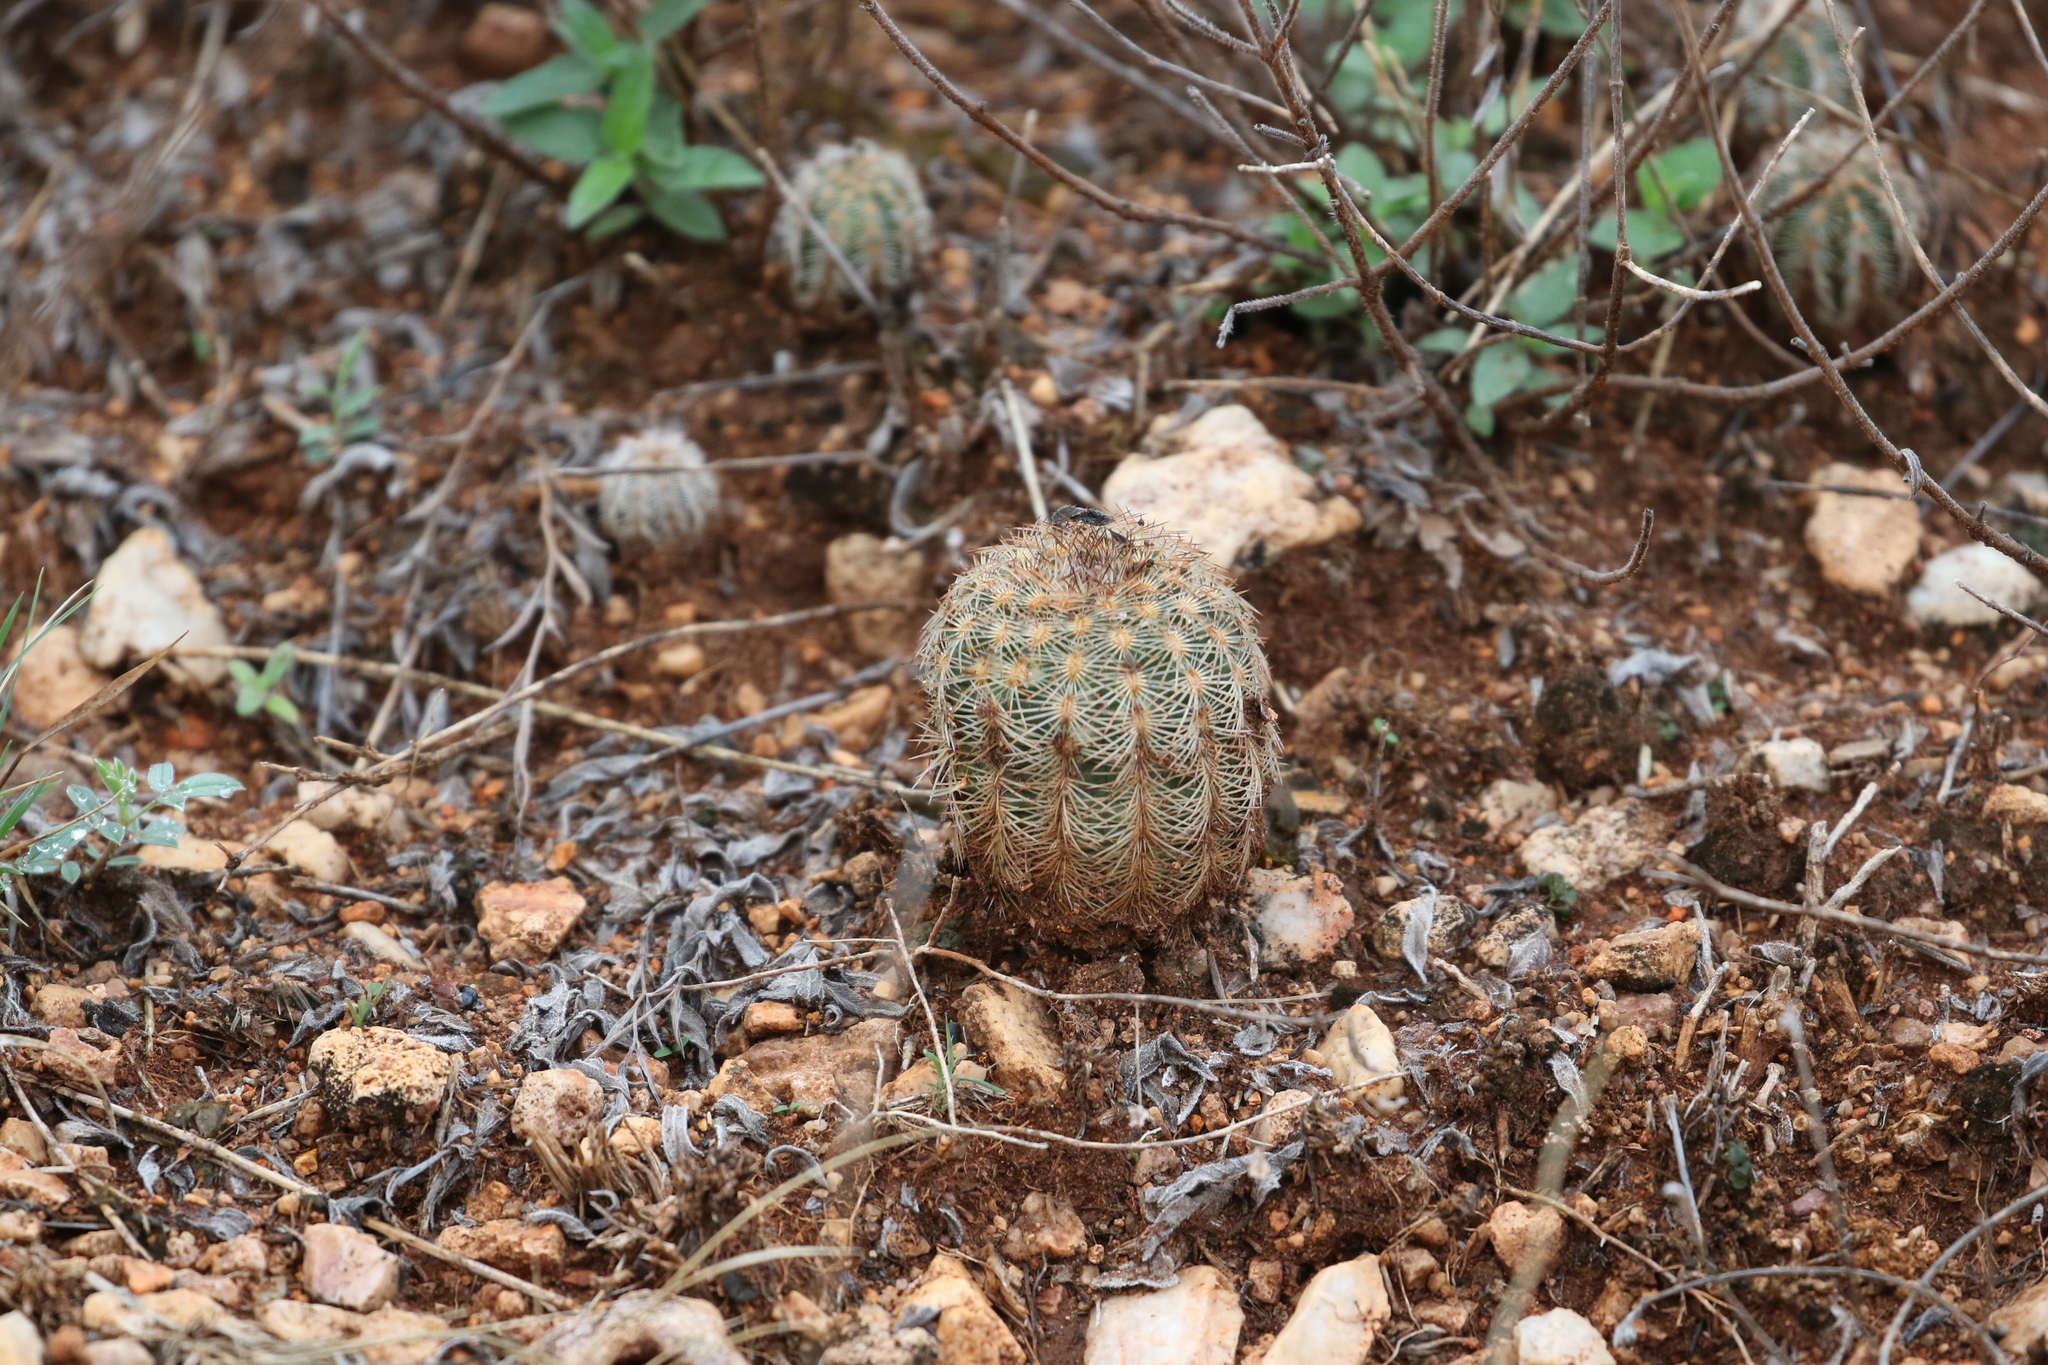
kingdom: Plantae
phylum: Tracheophyta
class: Magnoliopsida
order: Caryophyllales
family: Cactaceae
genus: Echinocereus
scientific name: Echinocereus reichenbachii
